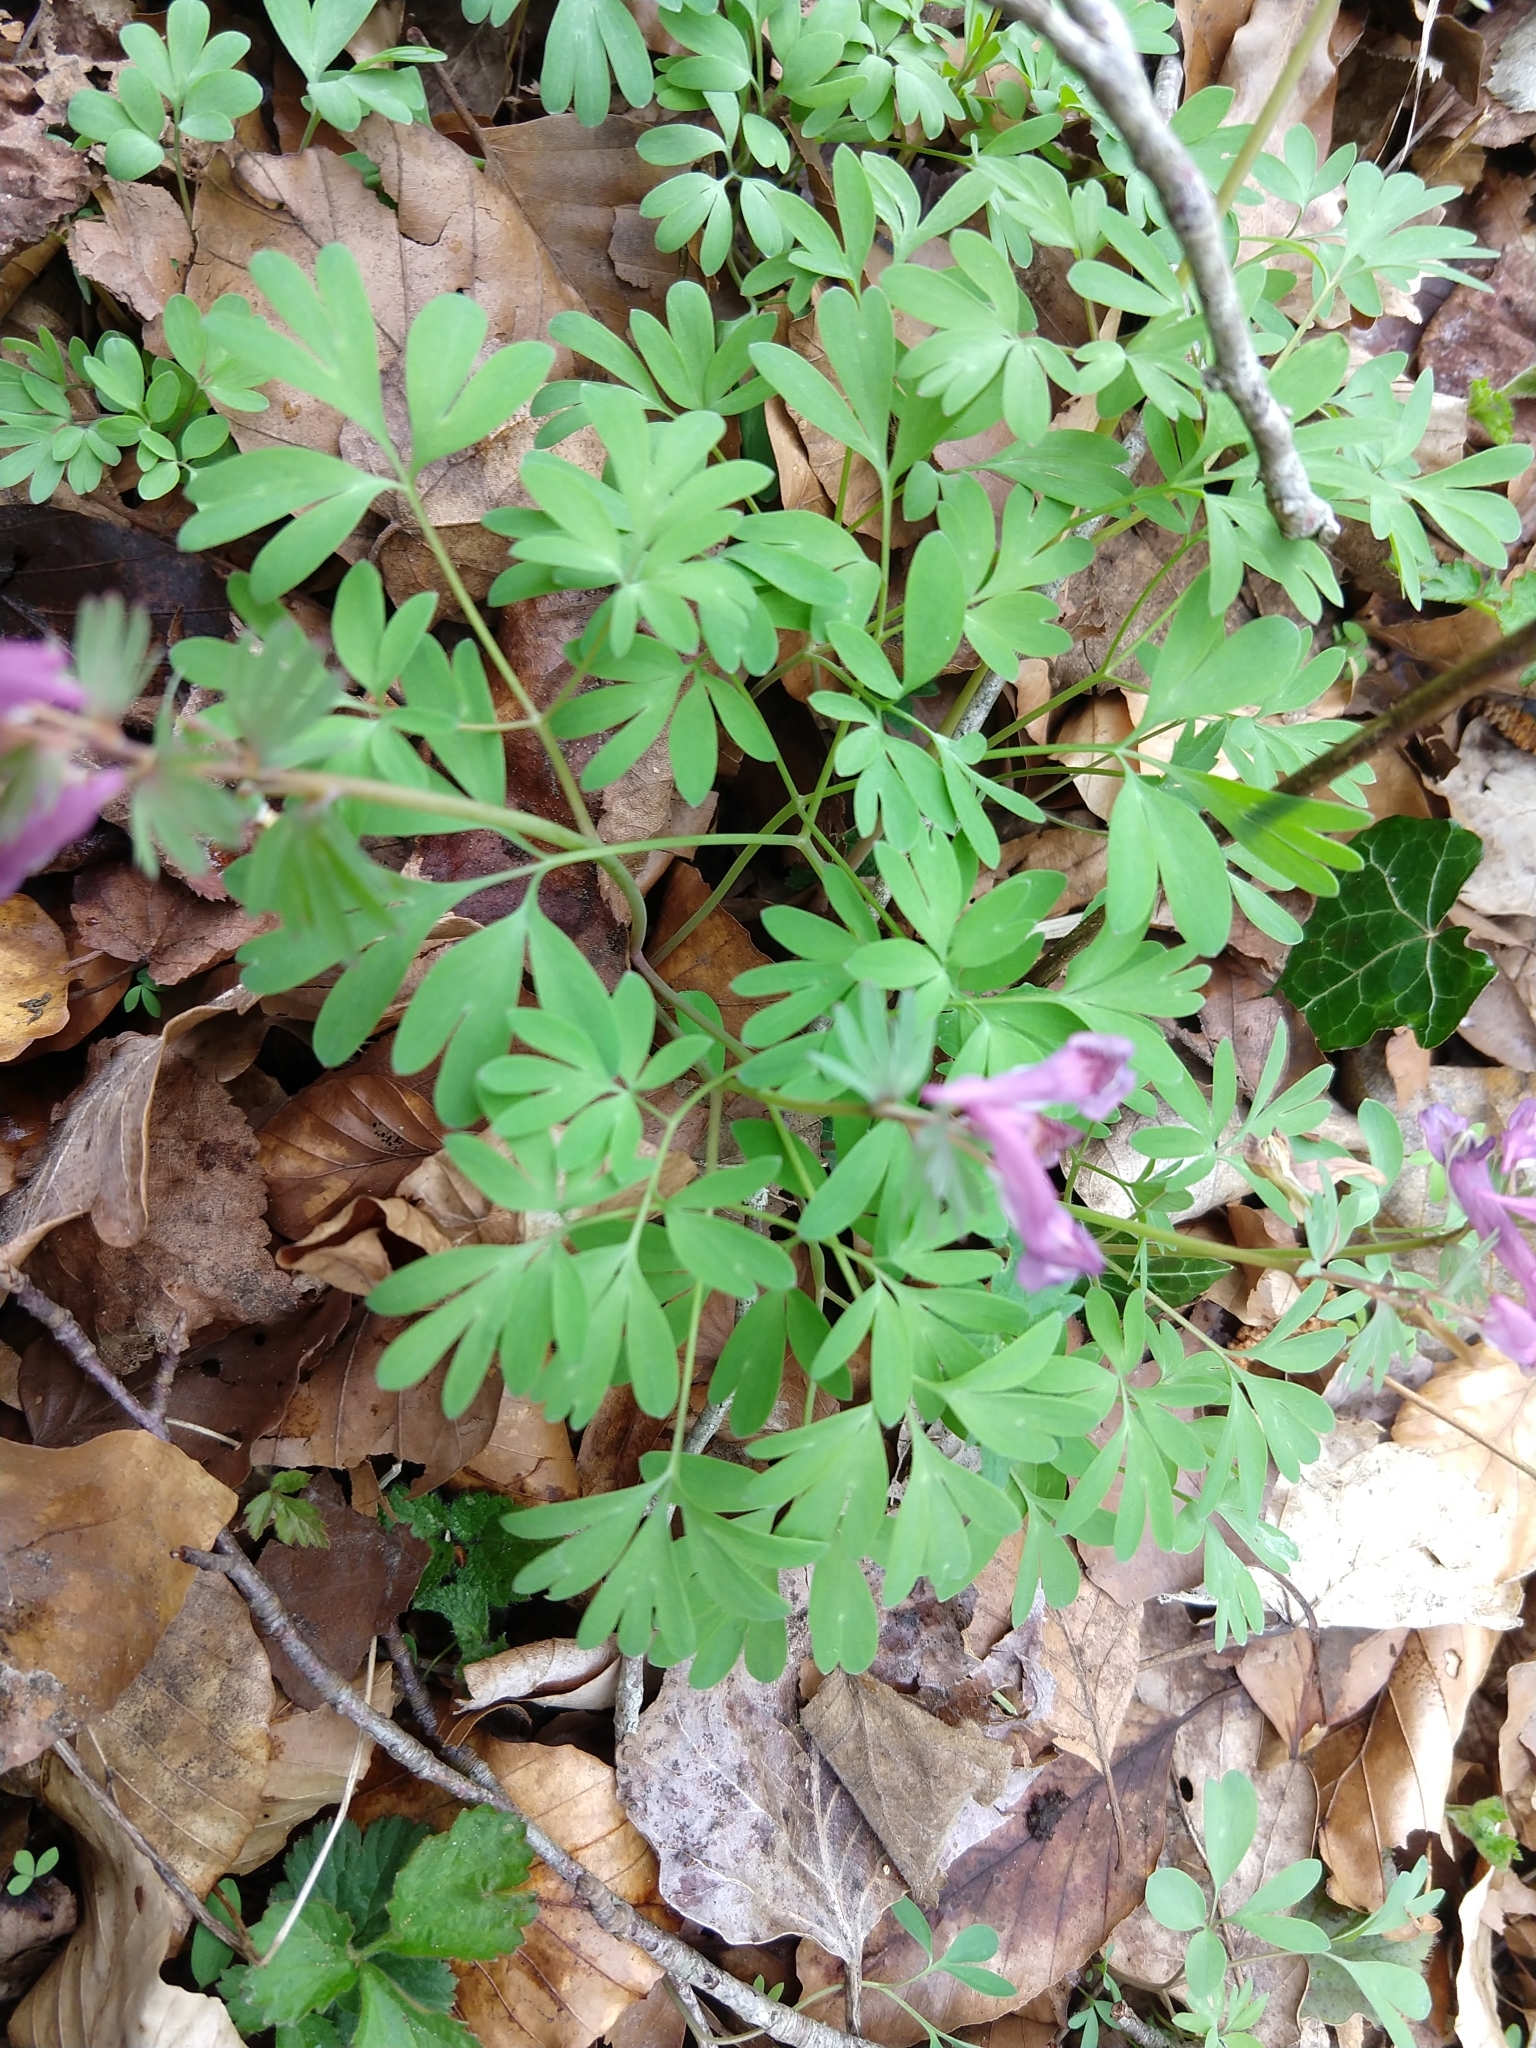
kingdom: Plantae
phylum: Tracheophyta
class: Magnoliopsida
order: Ranunculales
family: Papaveraceae
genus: Corydalis
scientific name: Corydalis solida
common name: Bird-in-a-bush
